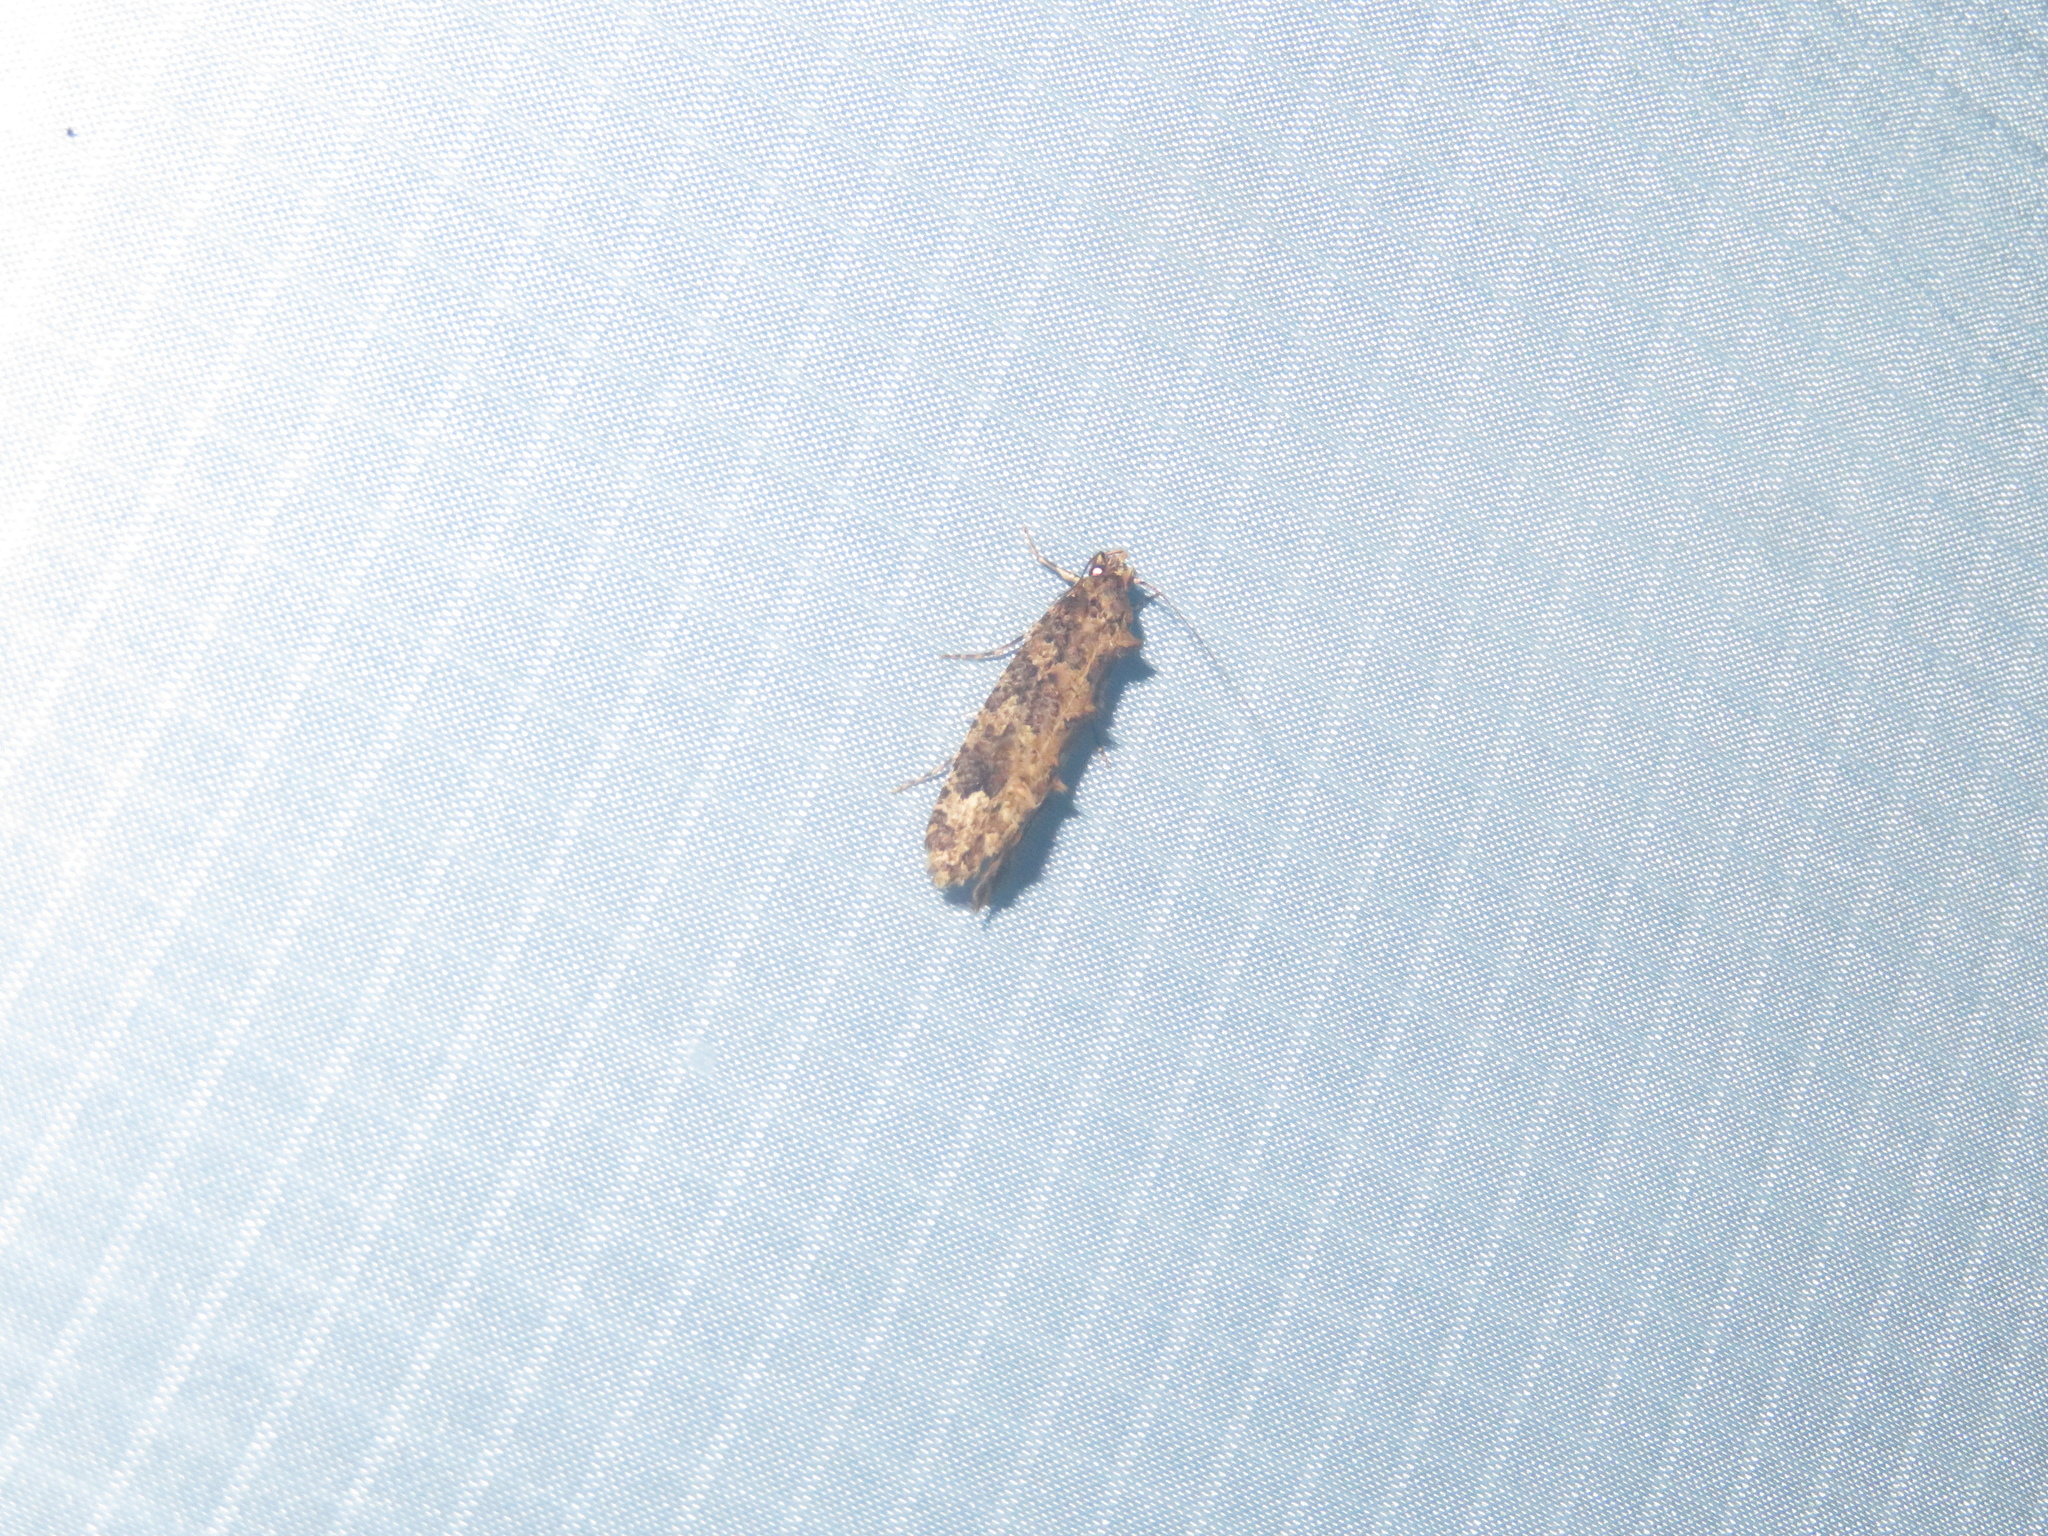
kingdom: Animalia
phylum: Arthropoda
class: Insecta
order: Lepidoptera
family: Tineidae
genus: Lysiphragma
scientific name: Lysiphragma epixyla
